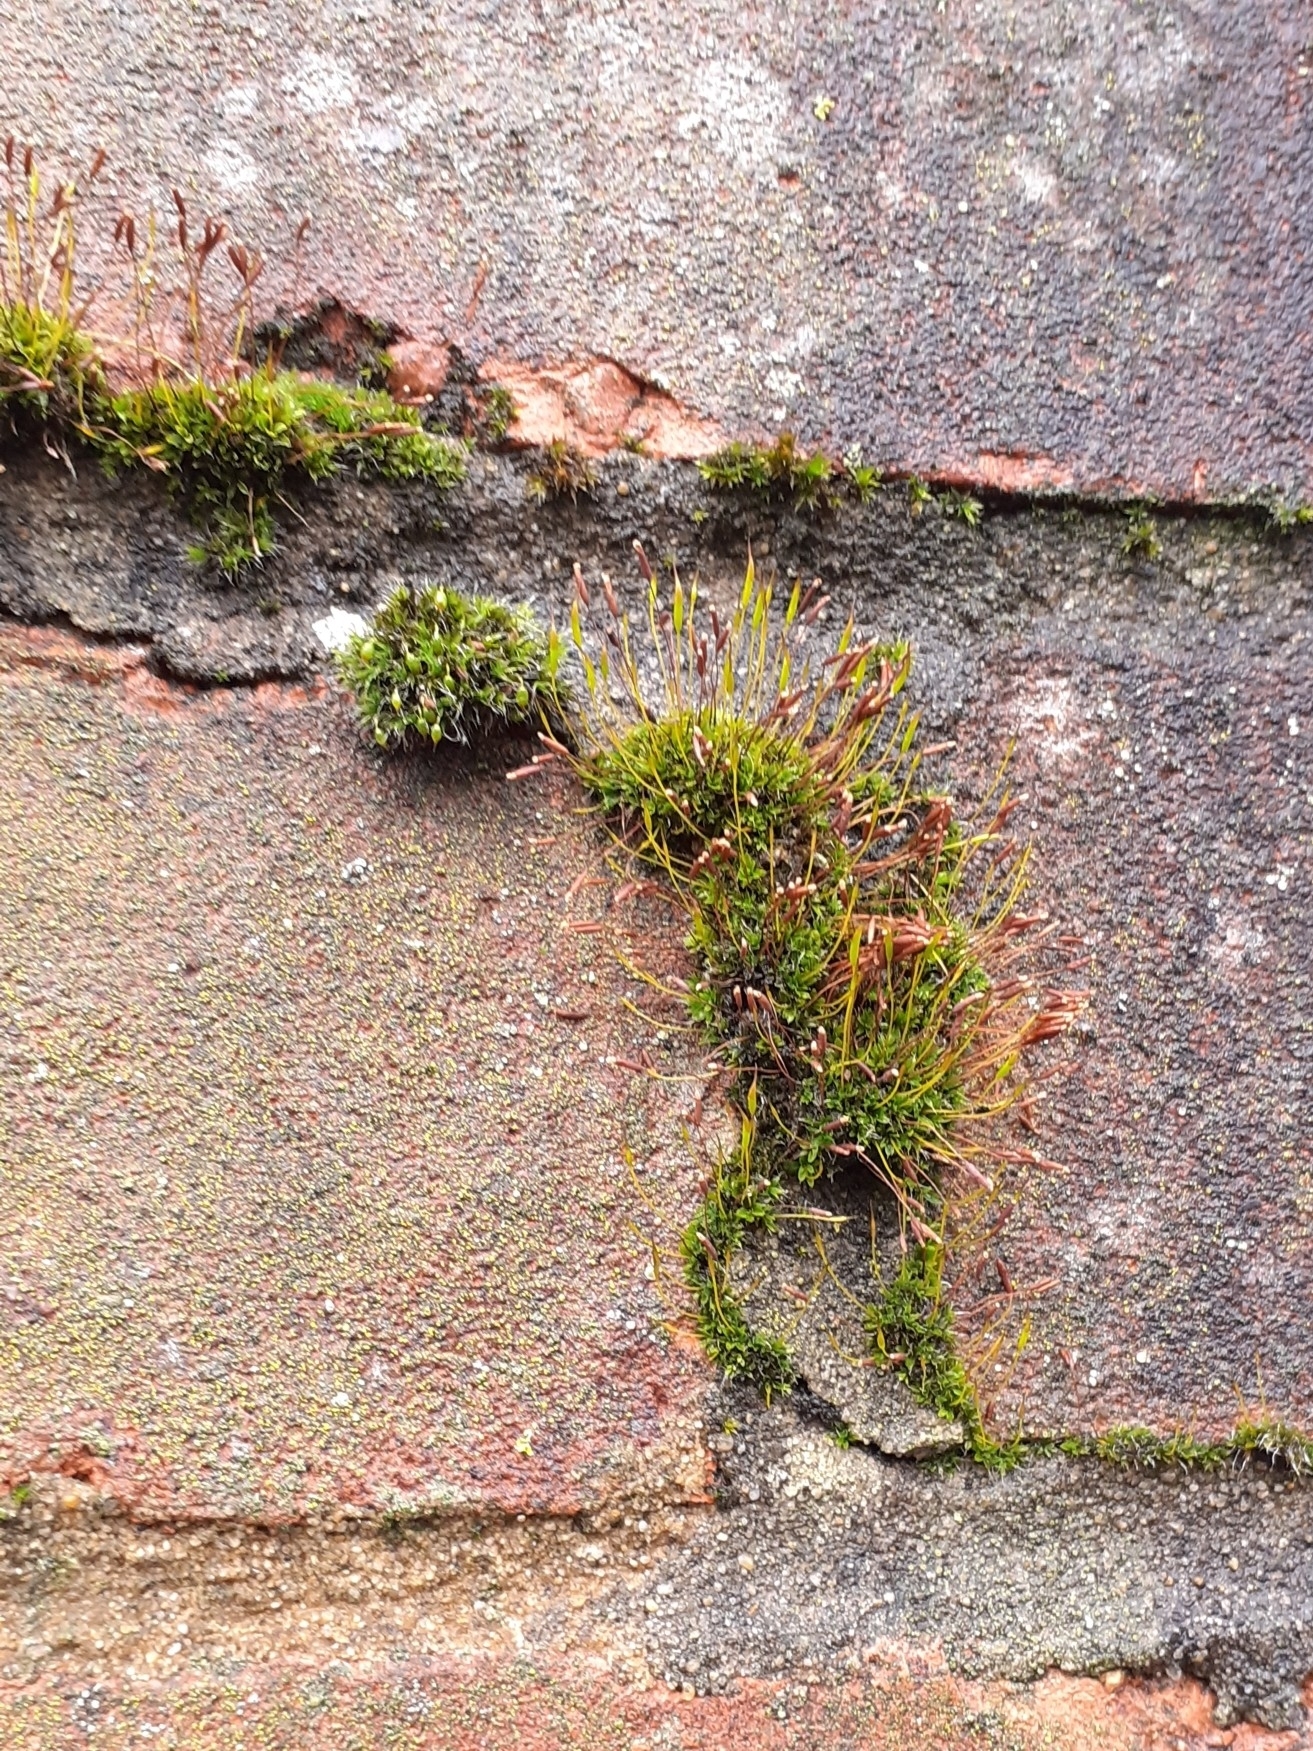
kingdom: Plantae
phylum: Bryophyta
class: Bryopsida
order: Pottiales
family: Pottiaceae
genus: Tortula
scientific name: Tortula muralis
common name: Wall screw-moss
